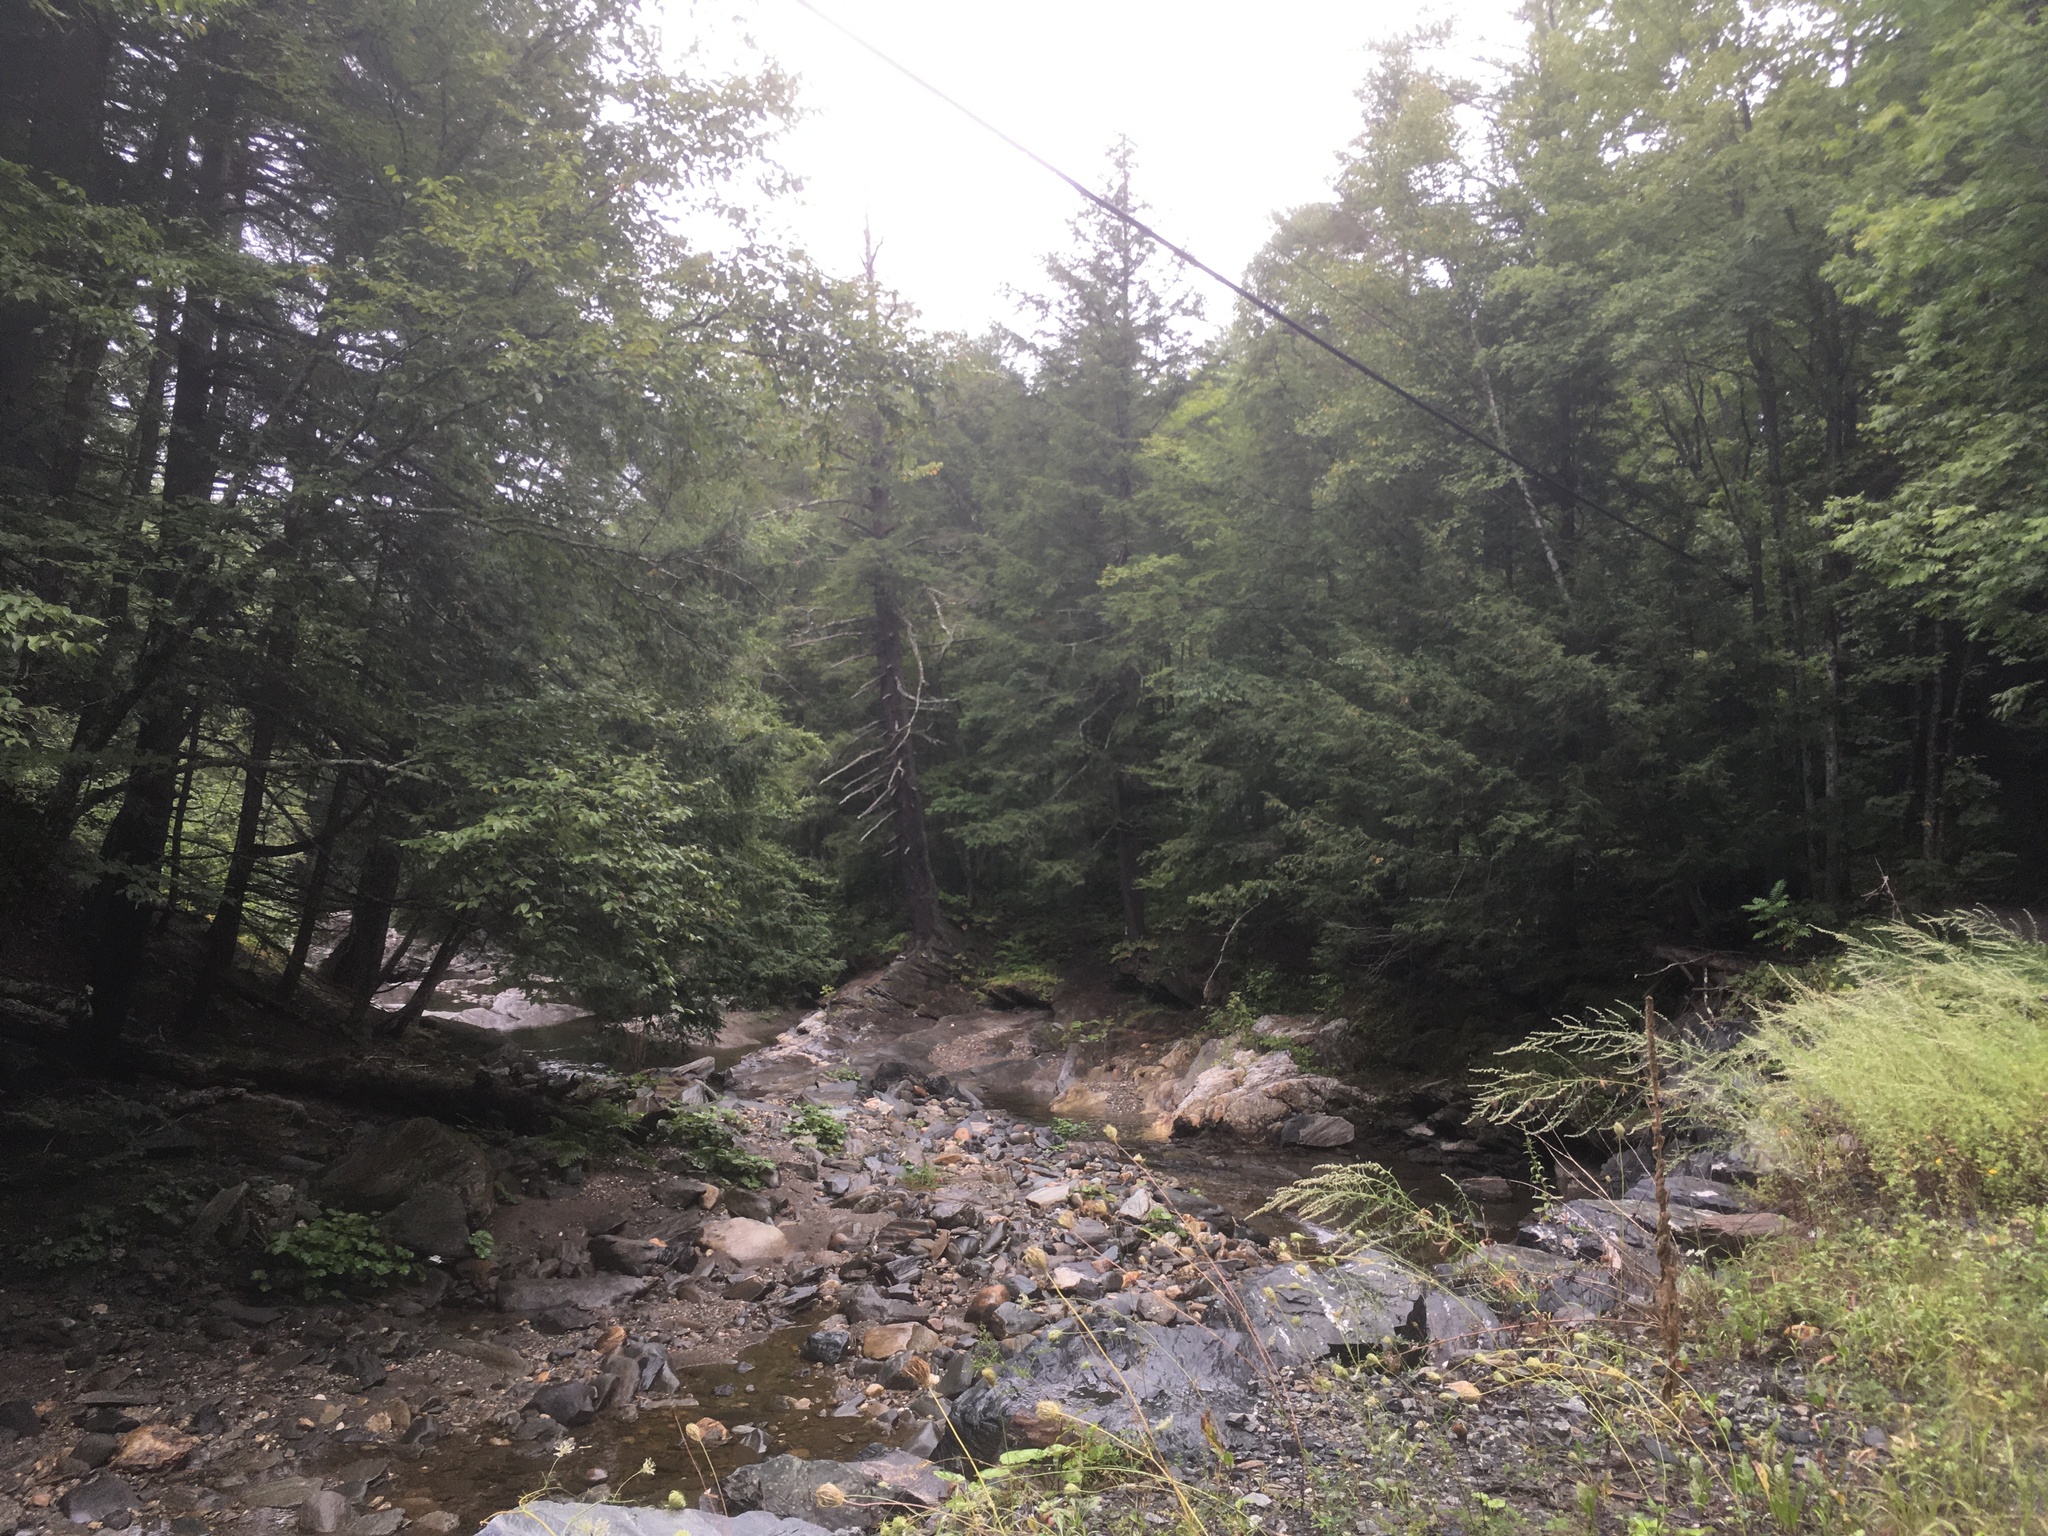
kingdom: Plantae
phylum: Tracheophyta
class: Pinopsida
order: Pinales
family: Pinaceae
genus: Tsuga
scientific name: Tsuga canadensis
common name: Eastern hemlock
